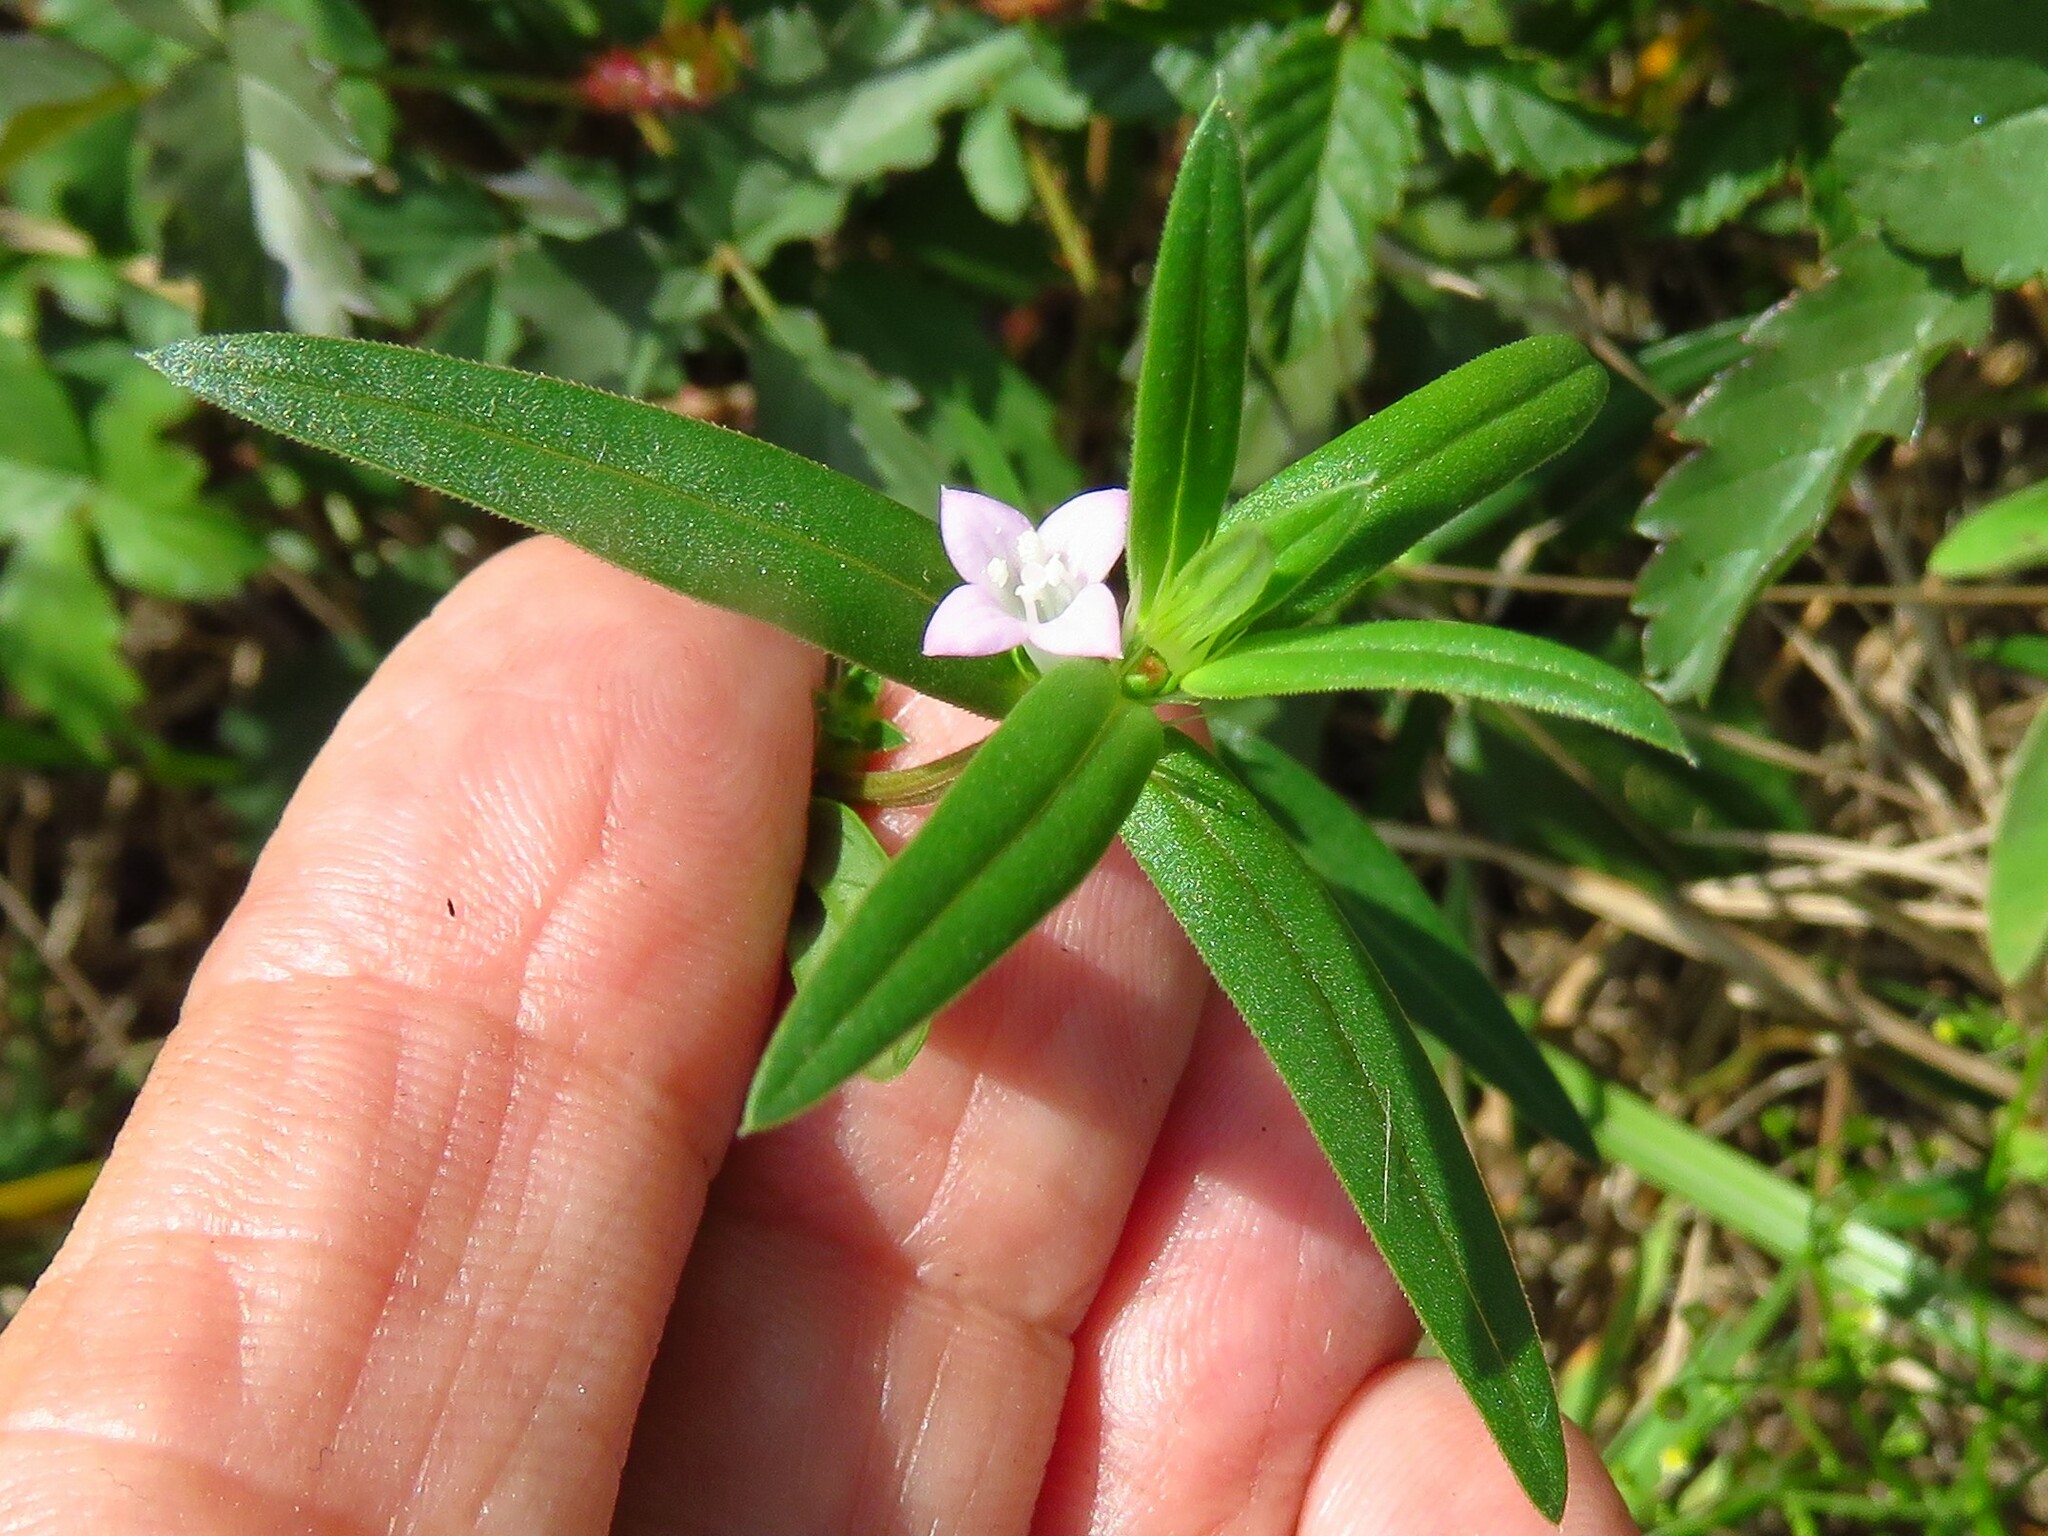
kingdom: Plantae
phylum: Tracheophyta
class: Magnoliopsida
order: Gentianales
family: Rubiaceae
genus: Hexasepalum
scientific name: Hexasepalum teres
